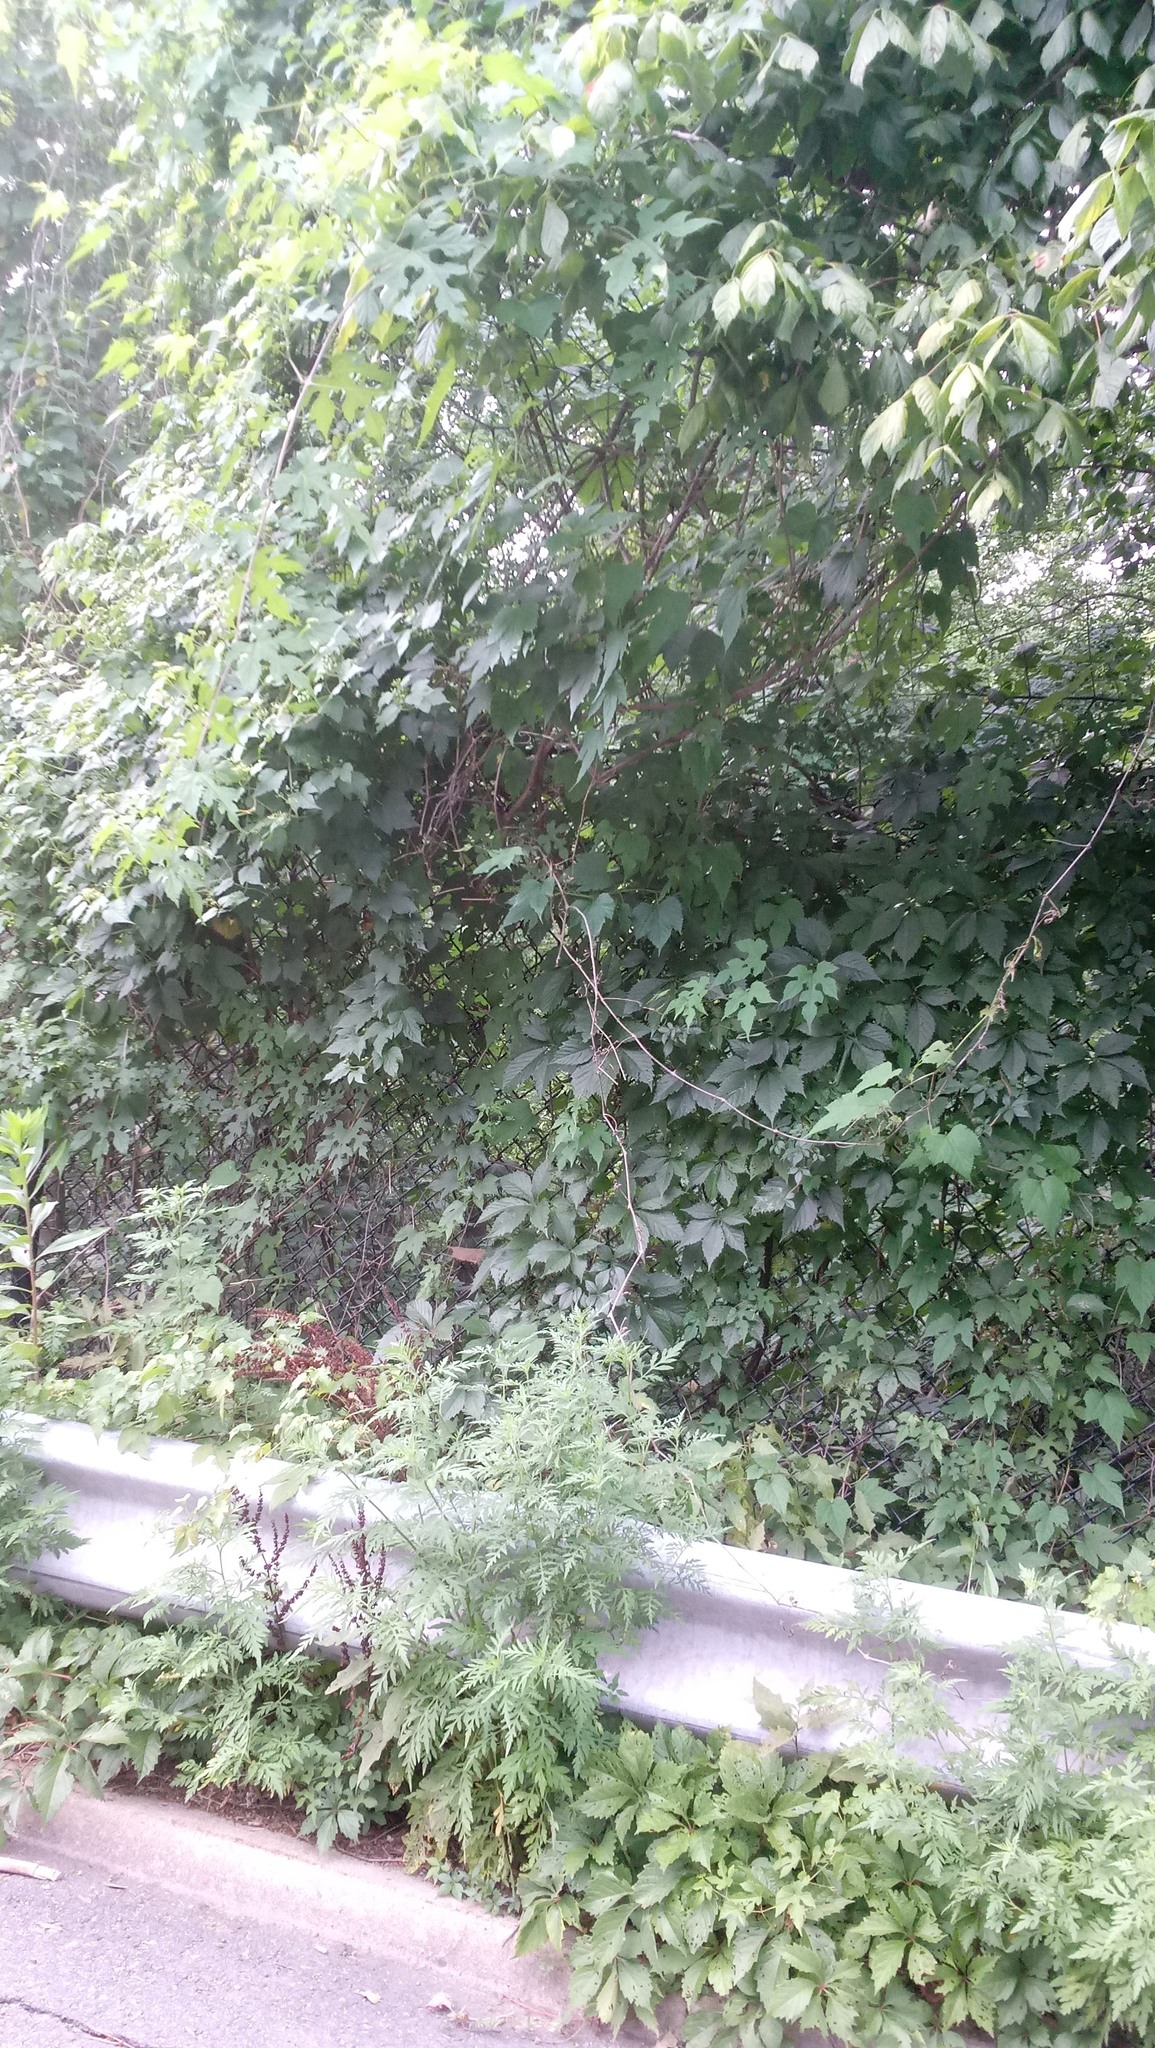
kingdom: Plantae
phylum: Tracheophyta
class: Magnoliopsida
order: Vitales
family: Vitaceae
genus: Parthenocissus
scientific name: Parthenocissus quinquefolia
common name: Virginia-creeper
